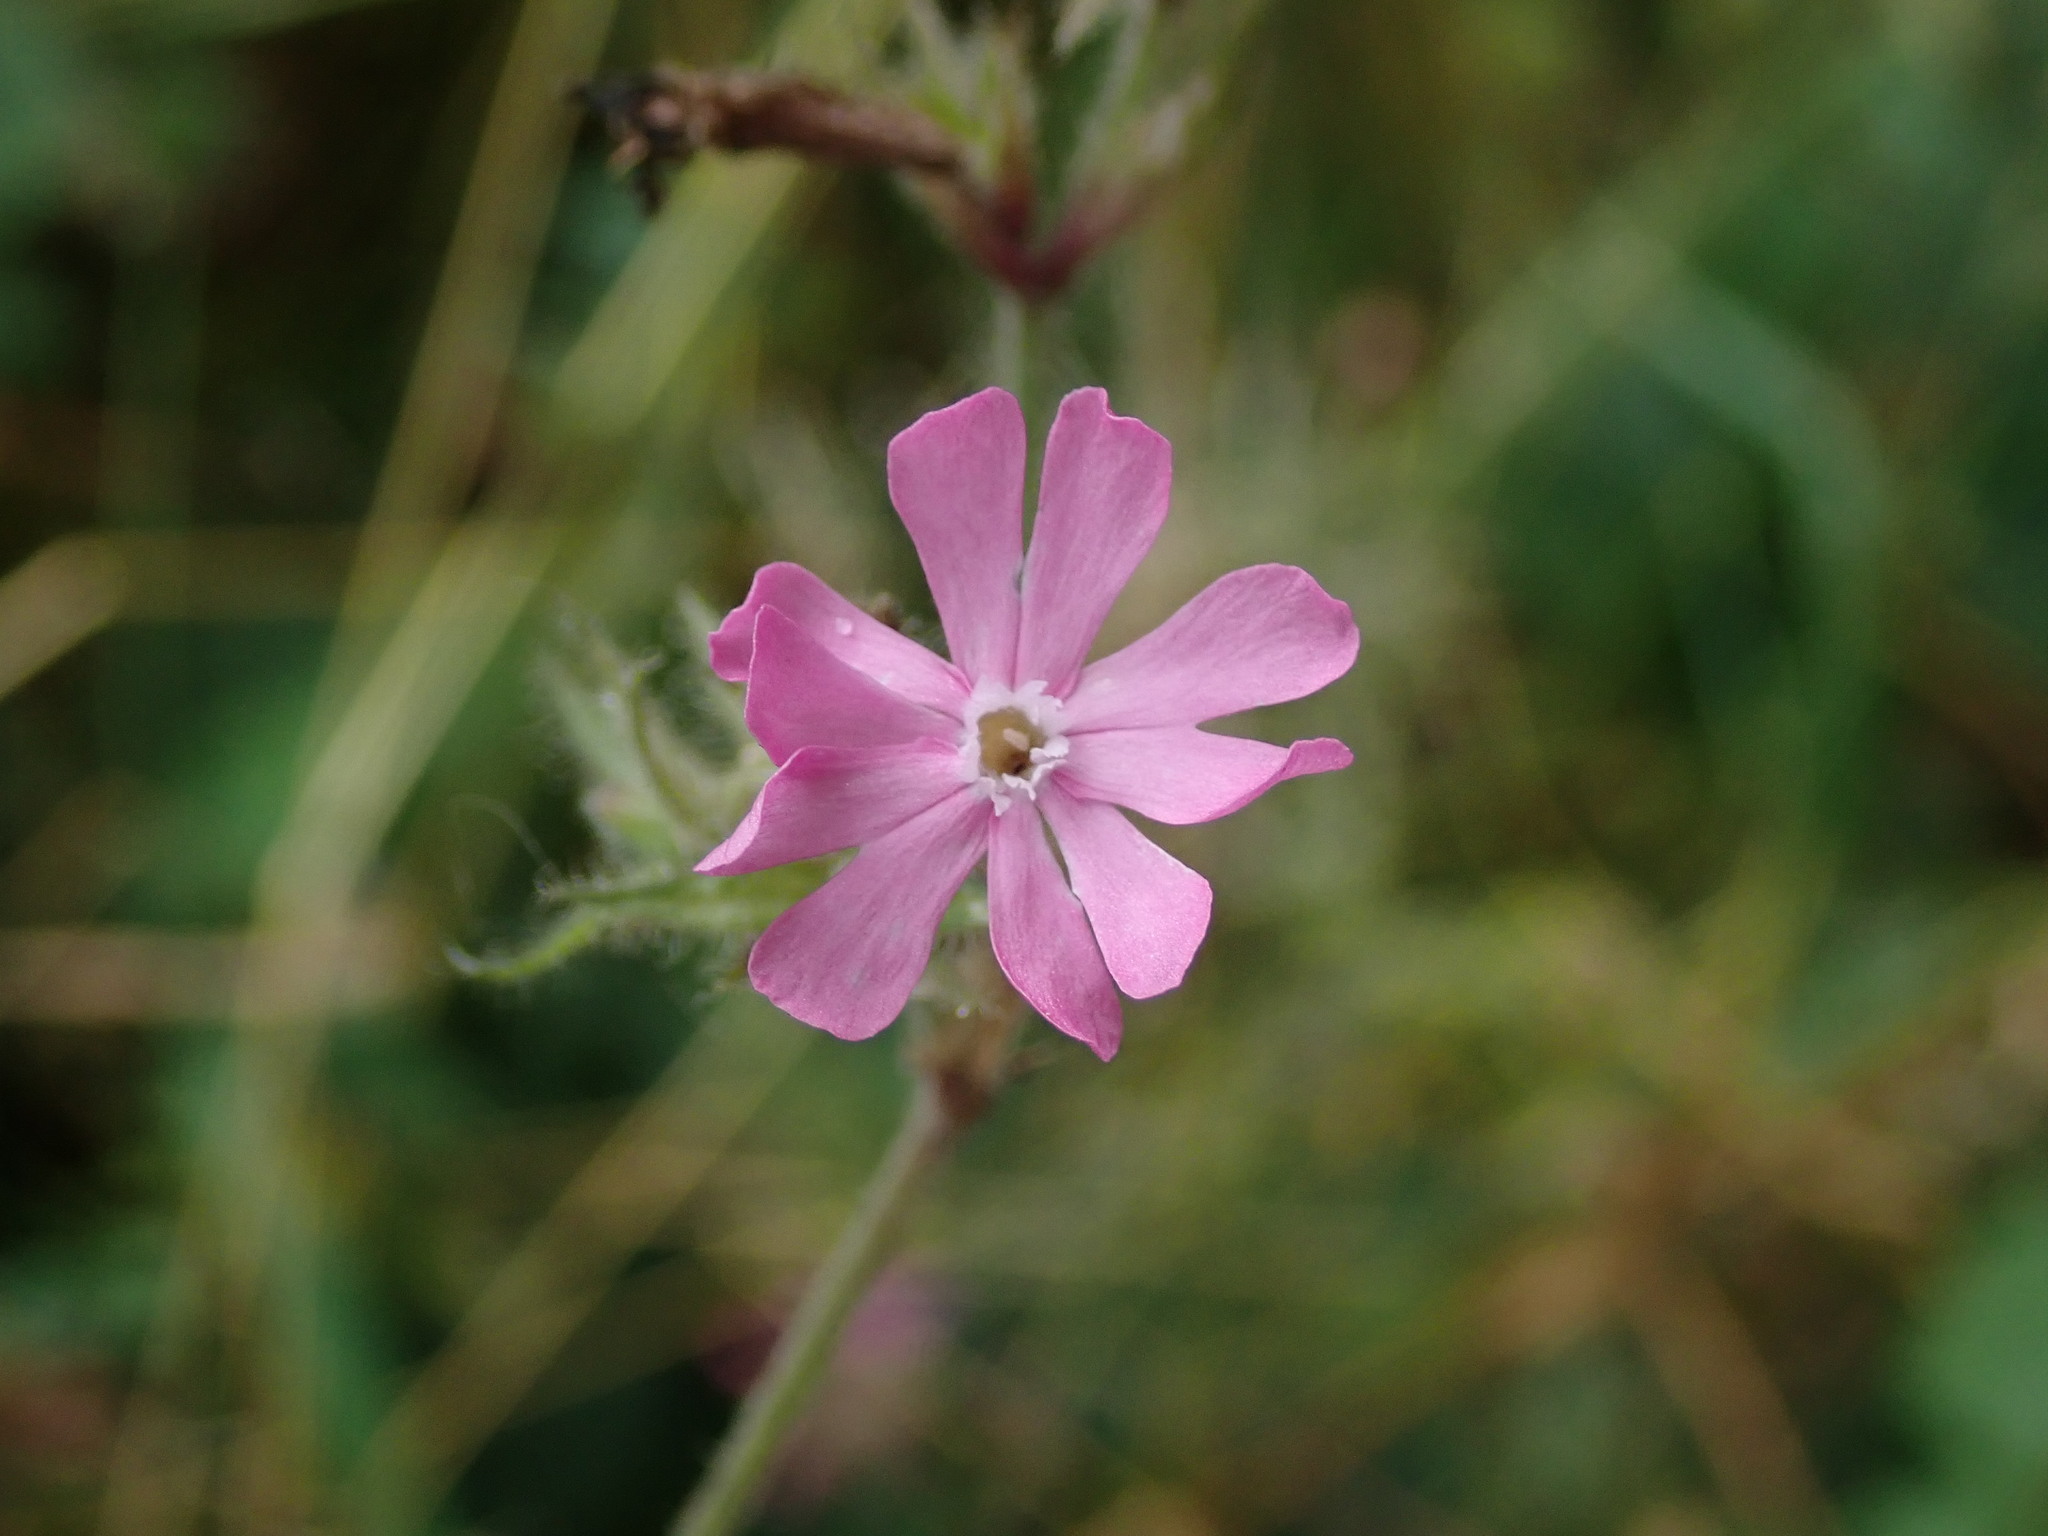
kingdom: Plantae
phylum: Tracheophyta
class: Magnoliopsida
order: Caryophyllales
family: Caryophyllaceae
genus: Silene
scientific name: Silene dioica
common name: Red campion
